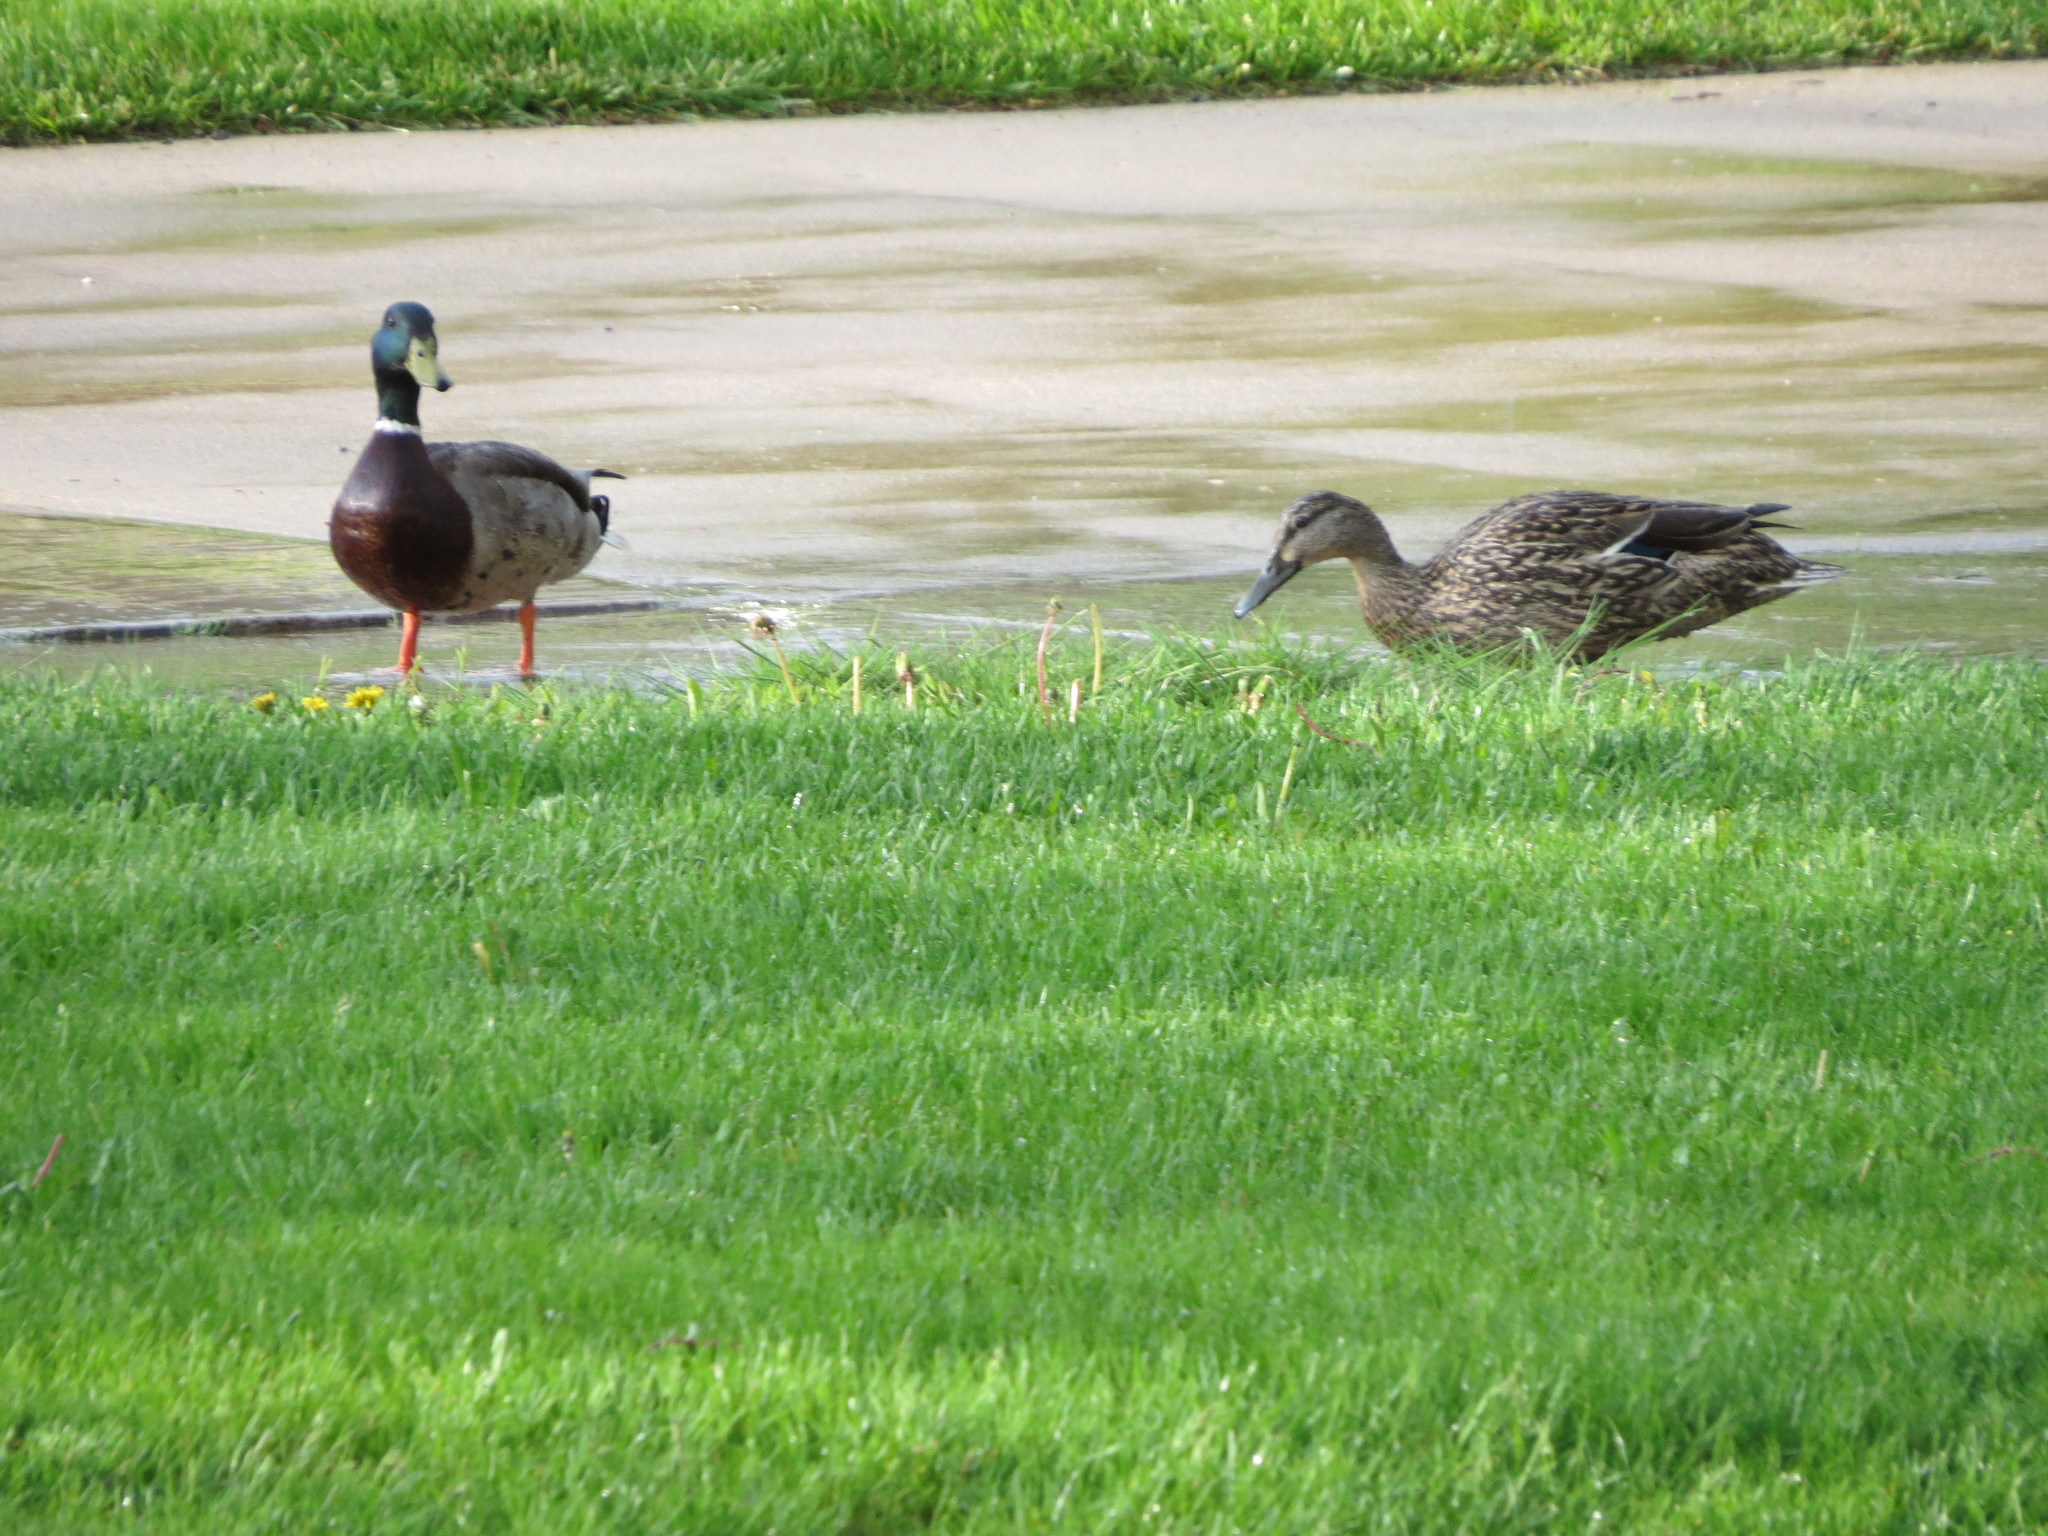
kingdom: Animalia
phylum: Chordata
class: Aves
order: Anseriformes
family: Anatidae
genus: Anas
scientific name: Anas platyrhynchos
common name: Mallard
